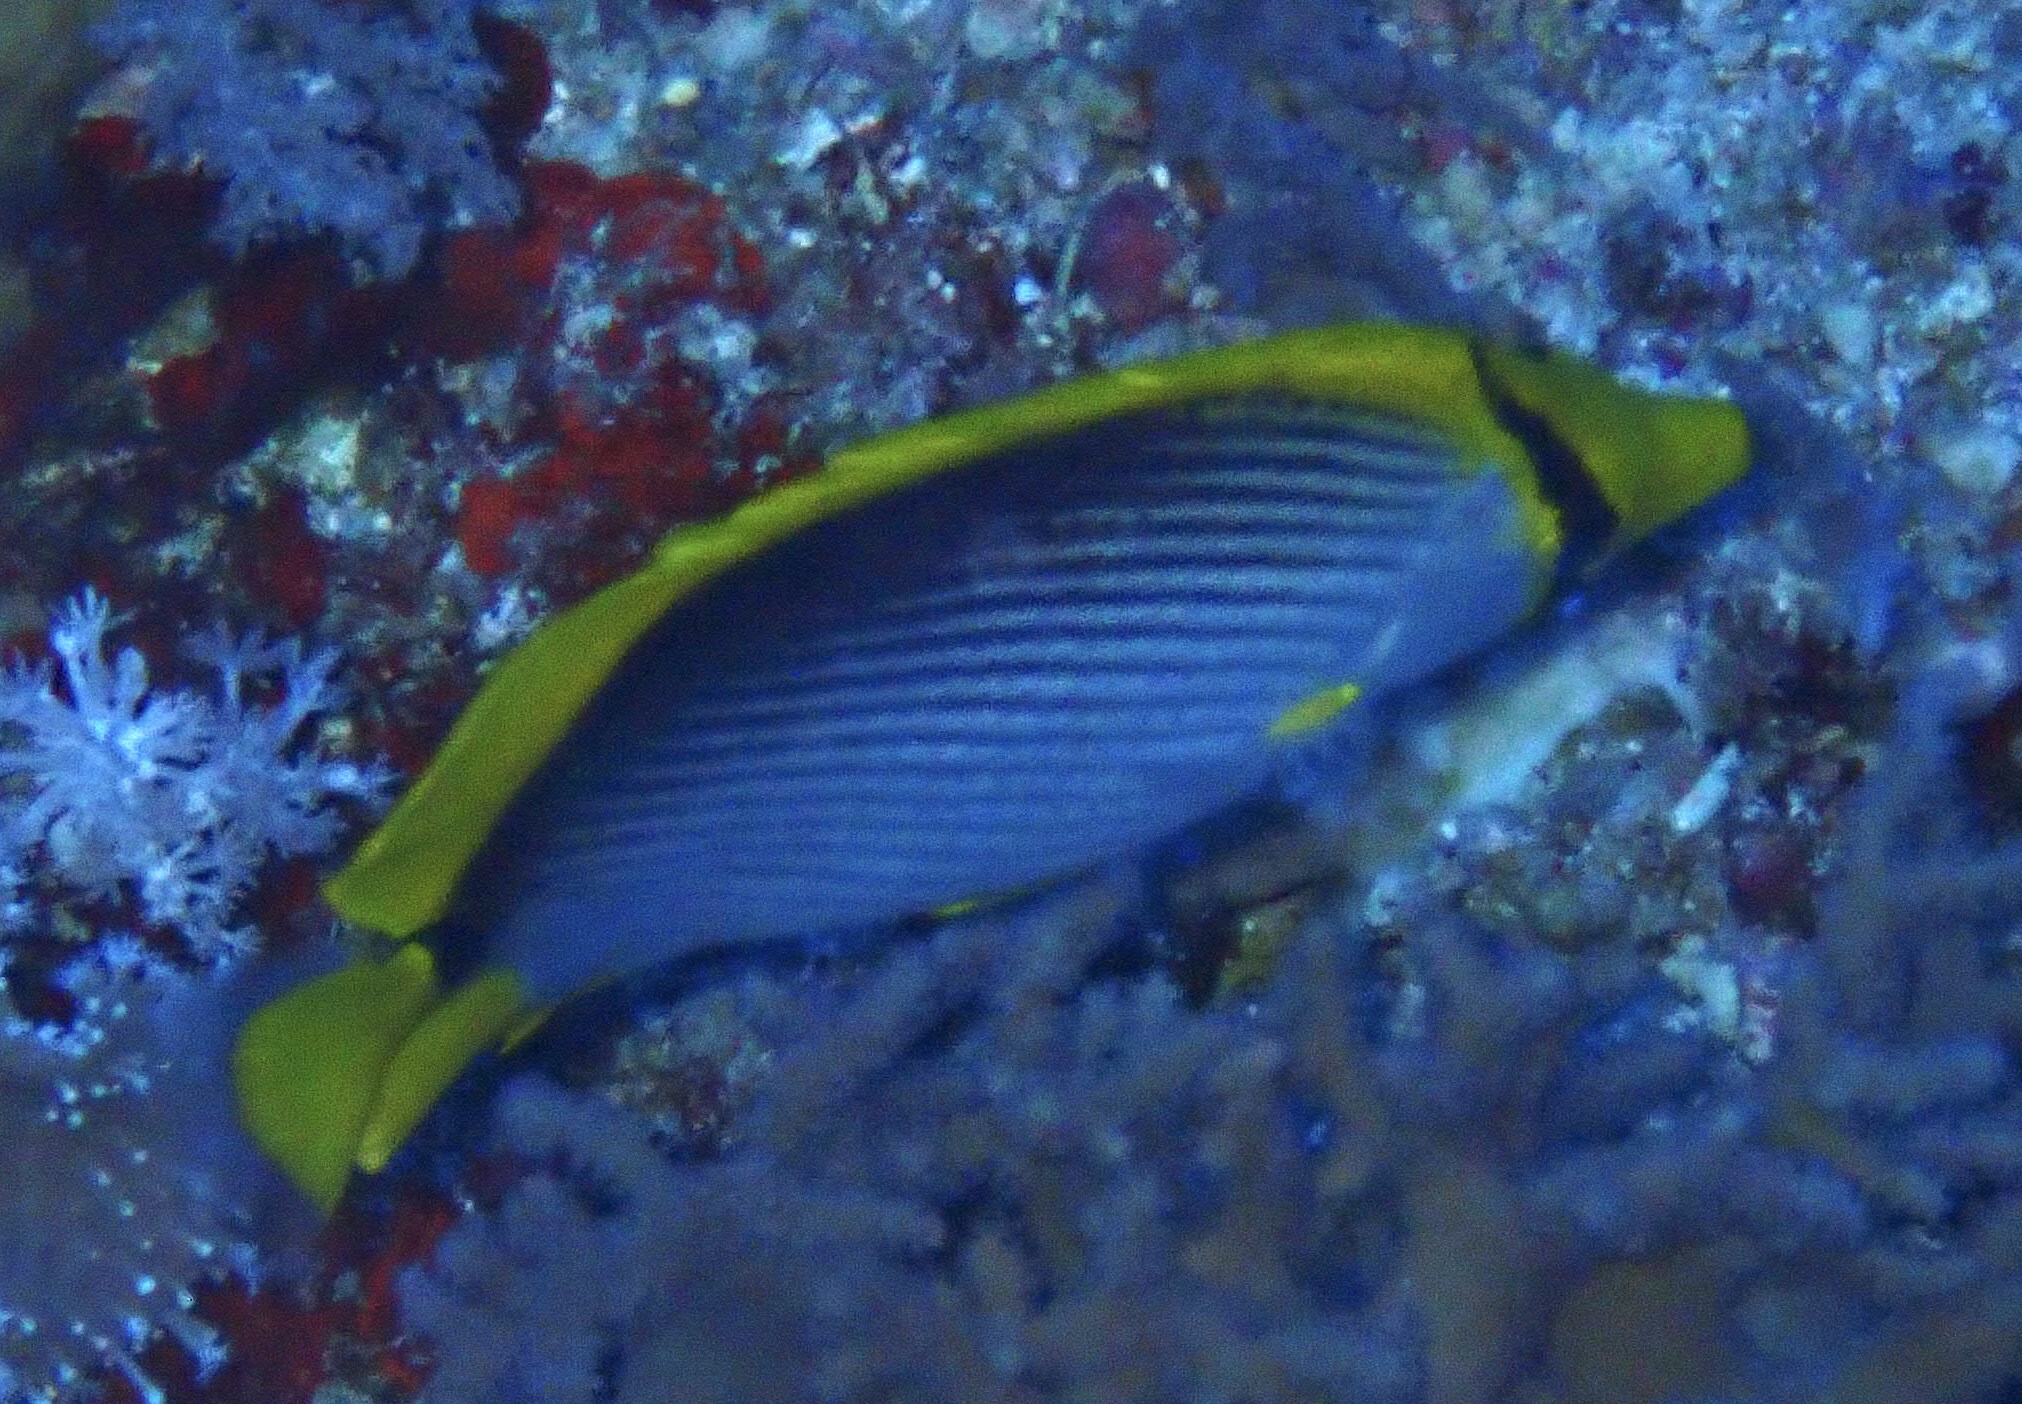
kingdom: Animalia
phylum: Chordata
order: Perciformes
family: Chaetodontidae
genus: Chaetodon
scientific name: Chaetodon melannotus
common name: Blackback butterflyfish
